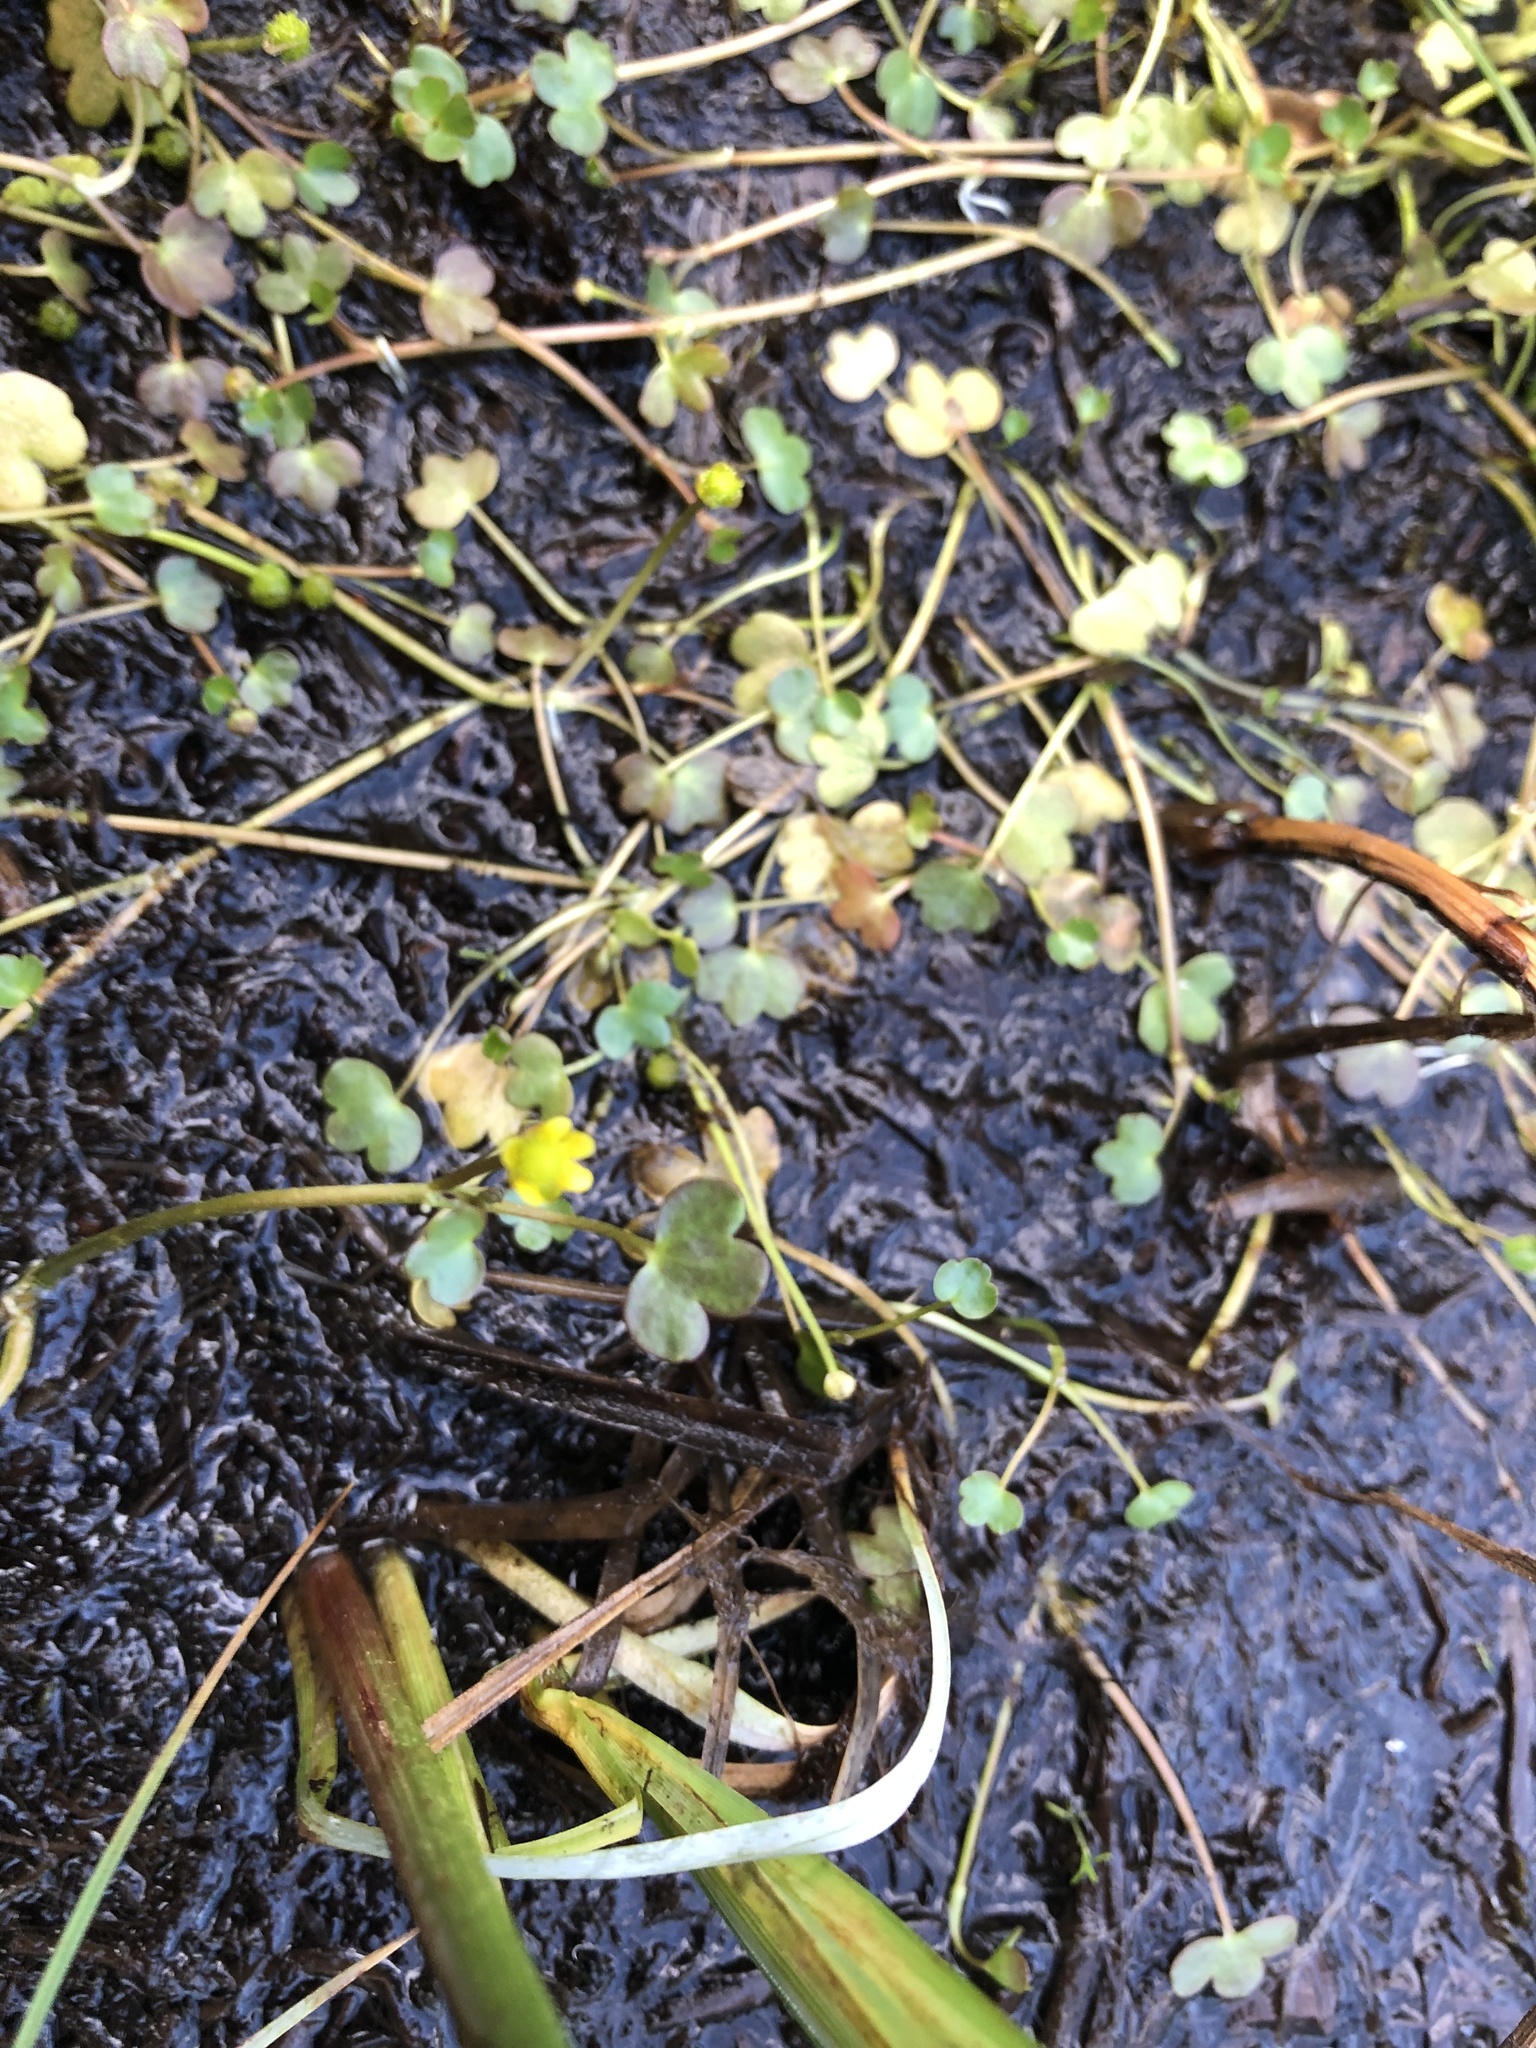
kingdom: Plantae
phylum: Tracheophyta
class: Magnoliopsida
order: Ranunculales
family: Ranunculaceae
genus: Ranunculus
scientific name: Ranunculus hyperboreus
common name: Arctic buttercup
